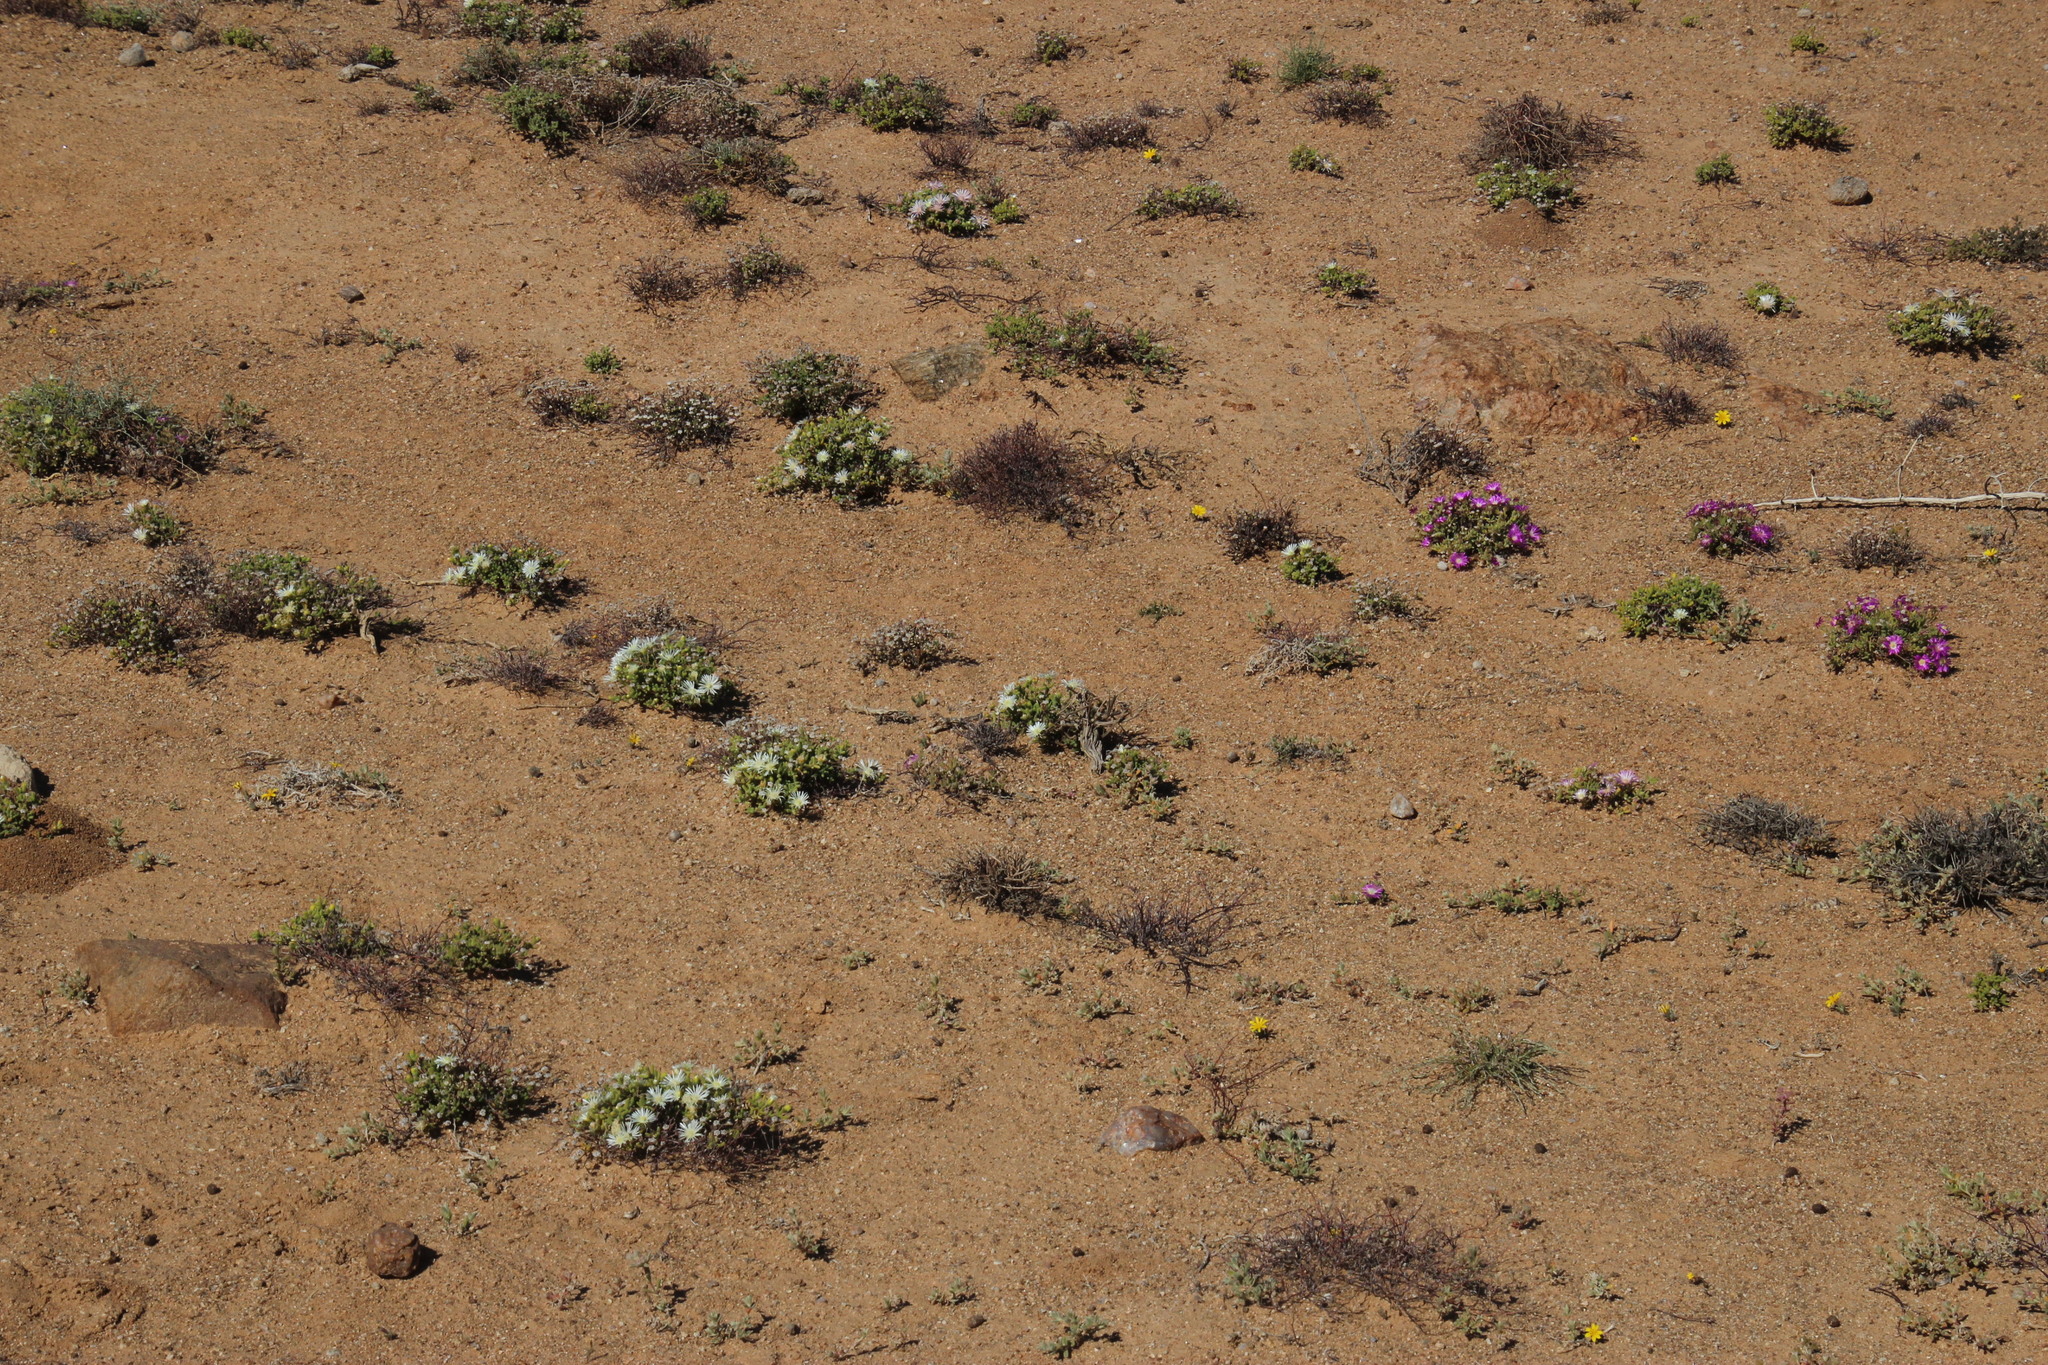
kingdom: Plantae
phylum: Tracheophyta
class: Magnoliopsida
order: Caryophyllales
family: Aizoaceae
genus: Drosanthemum
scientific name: Drosanthemum schoenlandianum
